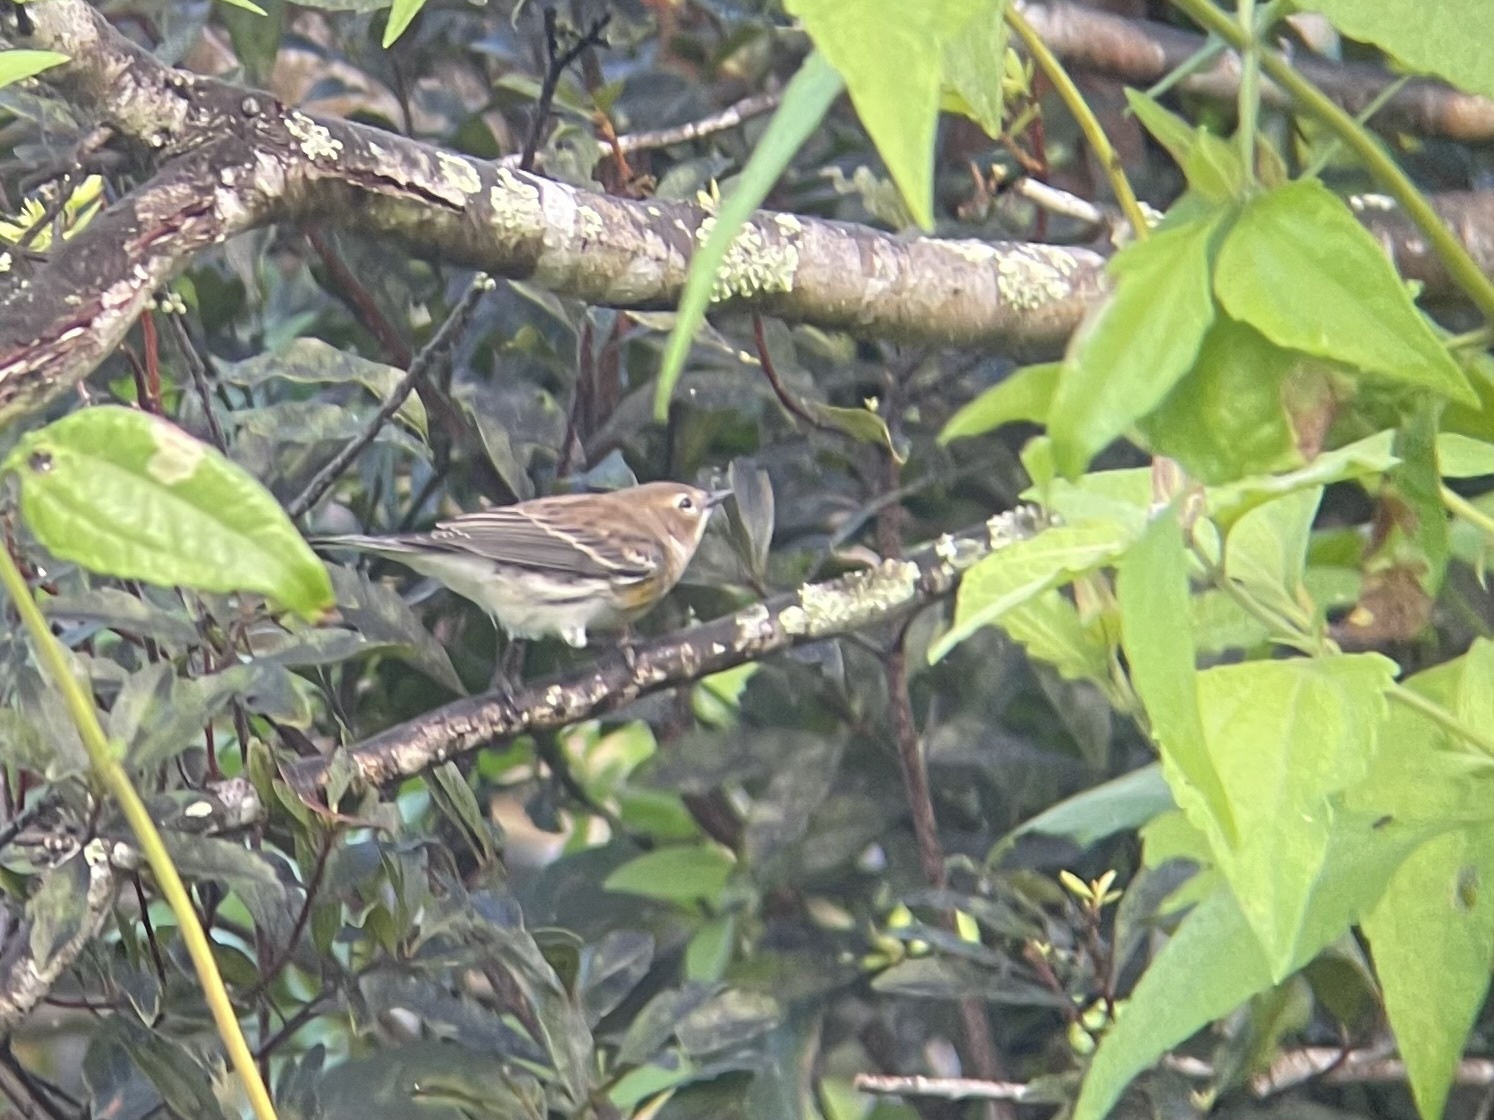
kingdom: Animalia
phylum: Chordata
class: Aves
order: Passeriformes
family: Parulidae
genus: Setophaga
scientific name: Setophaga coronata
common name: Myrtle warbler
